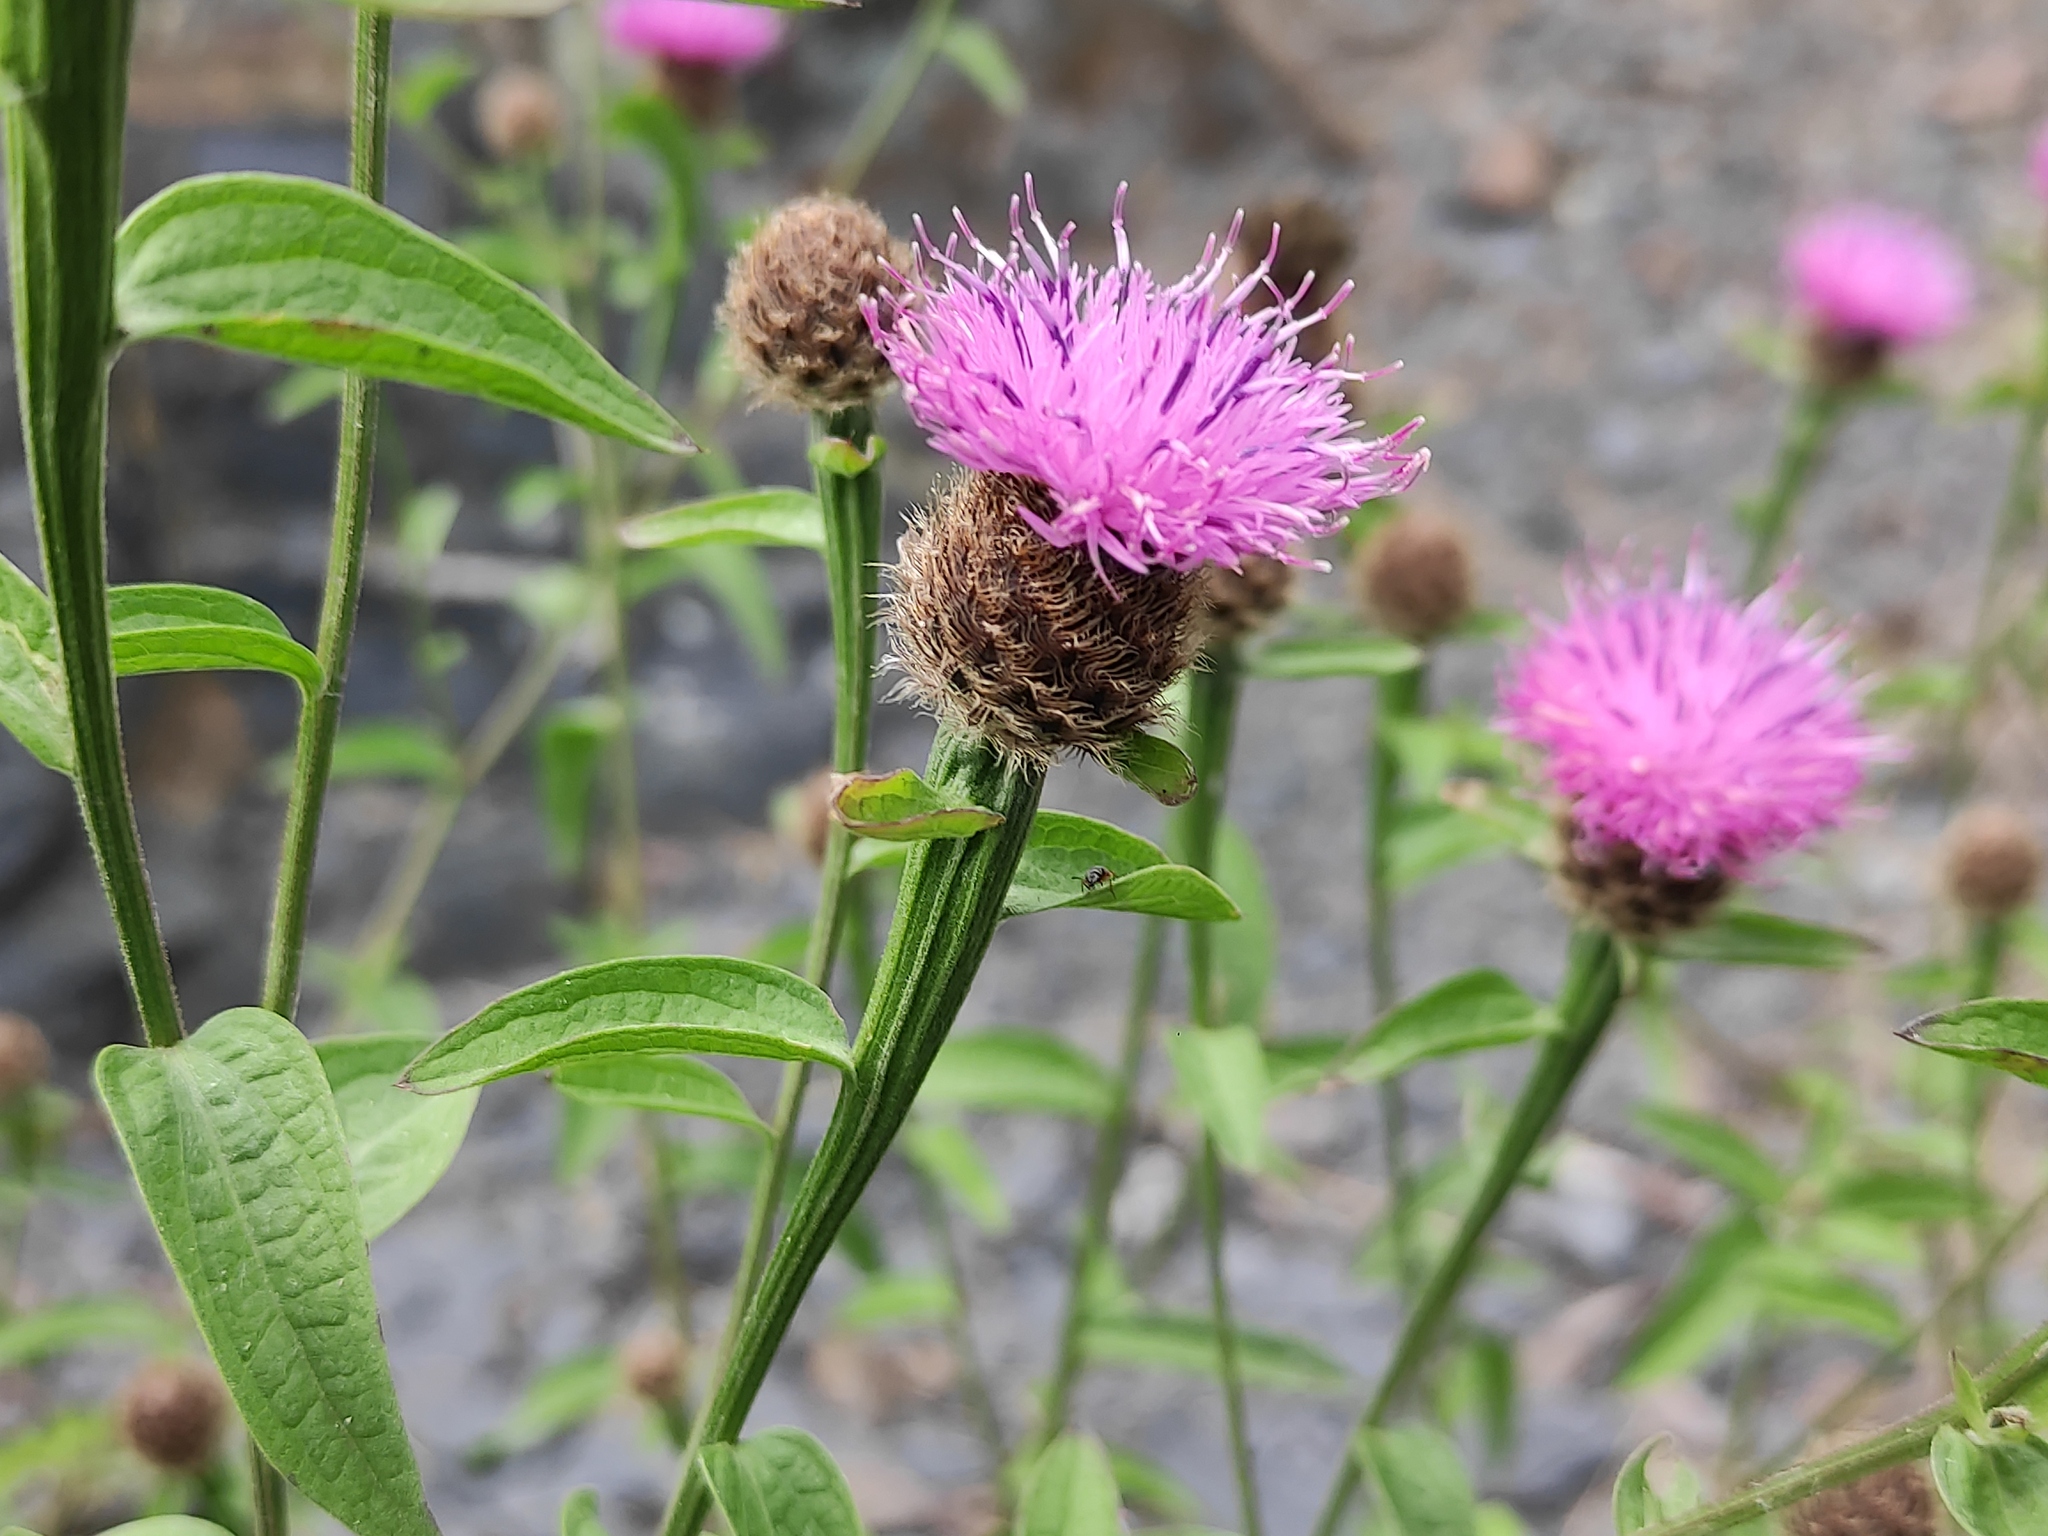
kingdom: Plantae
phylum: Tracheophyta
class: Magnoliopsida
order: Asterales
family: Asteraceae
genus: Centaurea
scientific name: Centaurea decipiens
